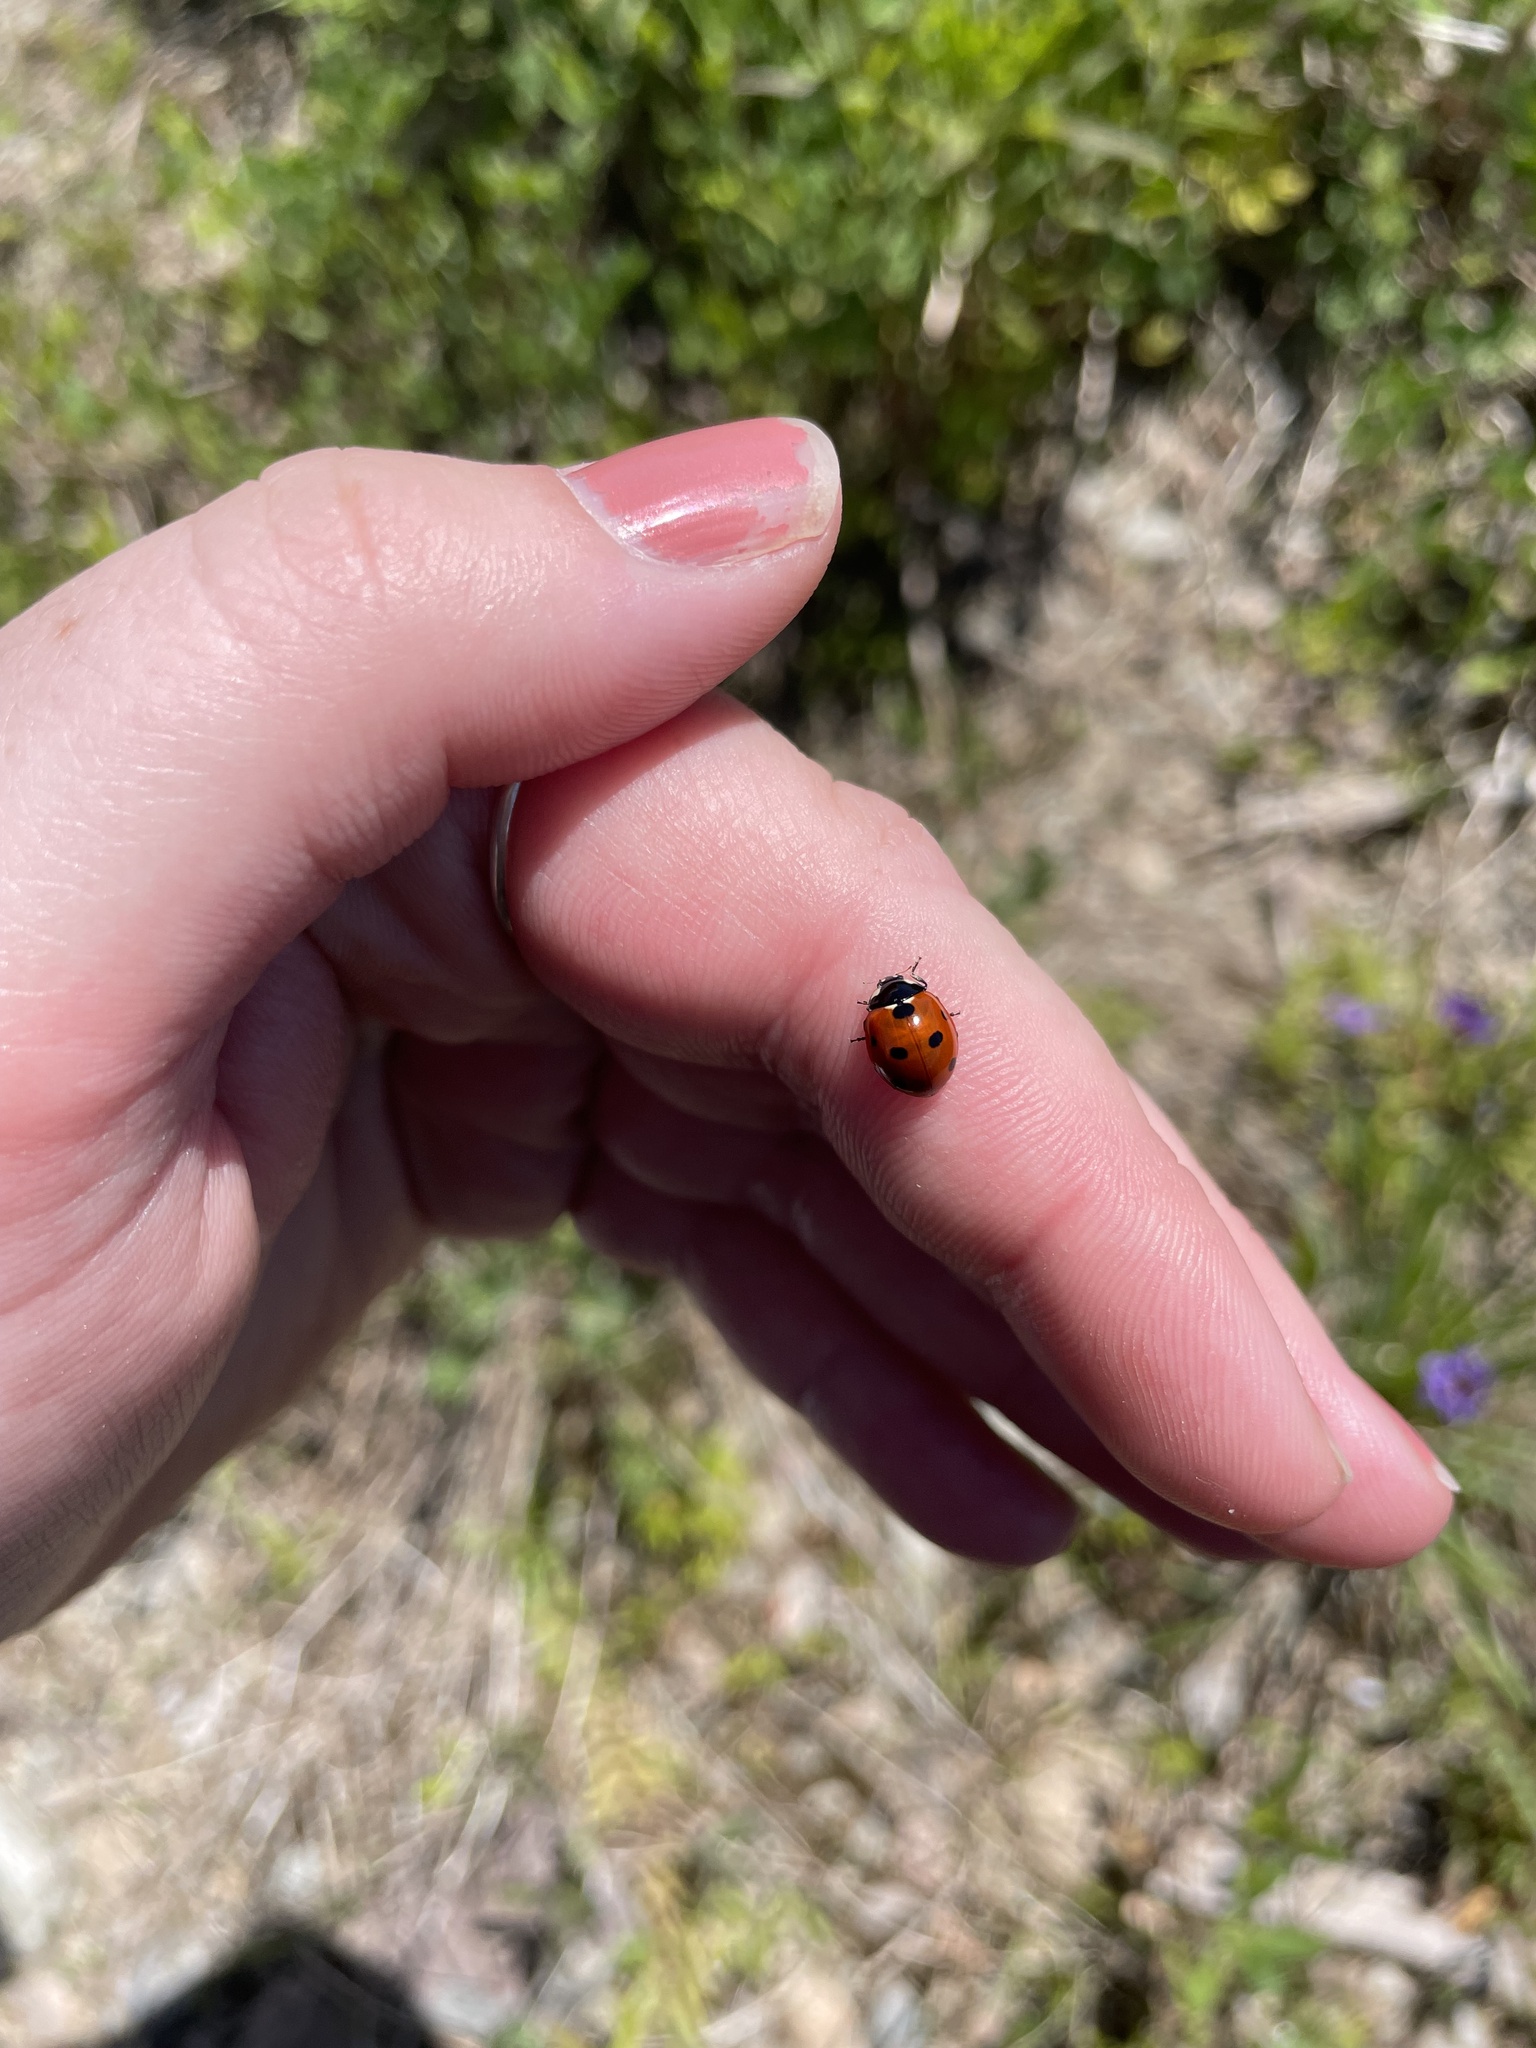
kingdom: Animalia
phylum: Arthropoda
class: Insecta
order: Coleoptera
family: Coccinellidae
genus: Coccinella
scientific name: Coccinella septempunctata
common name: Sevenspotted lady beetle
